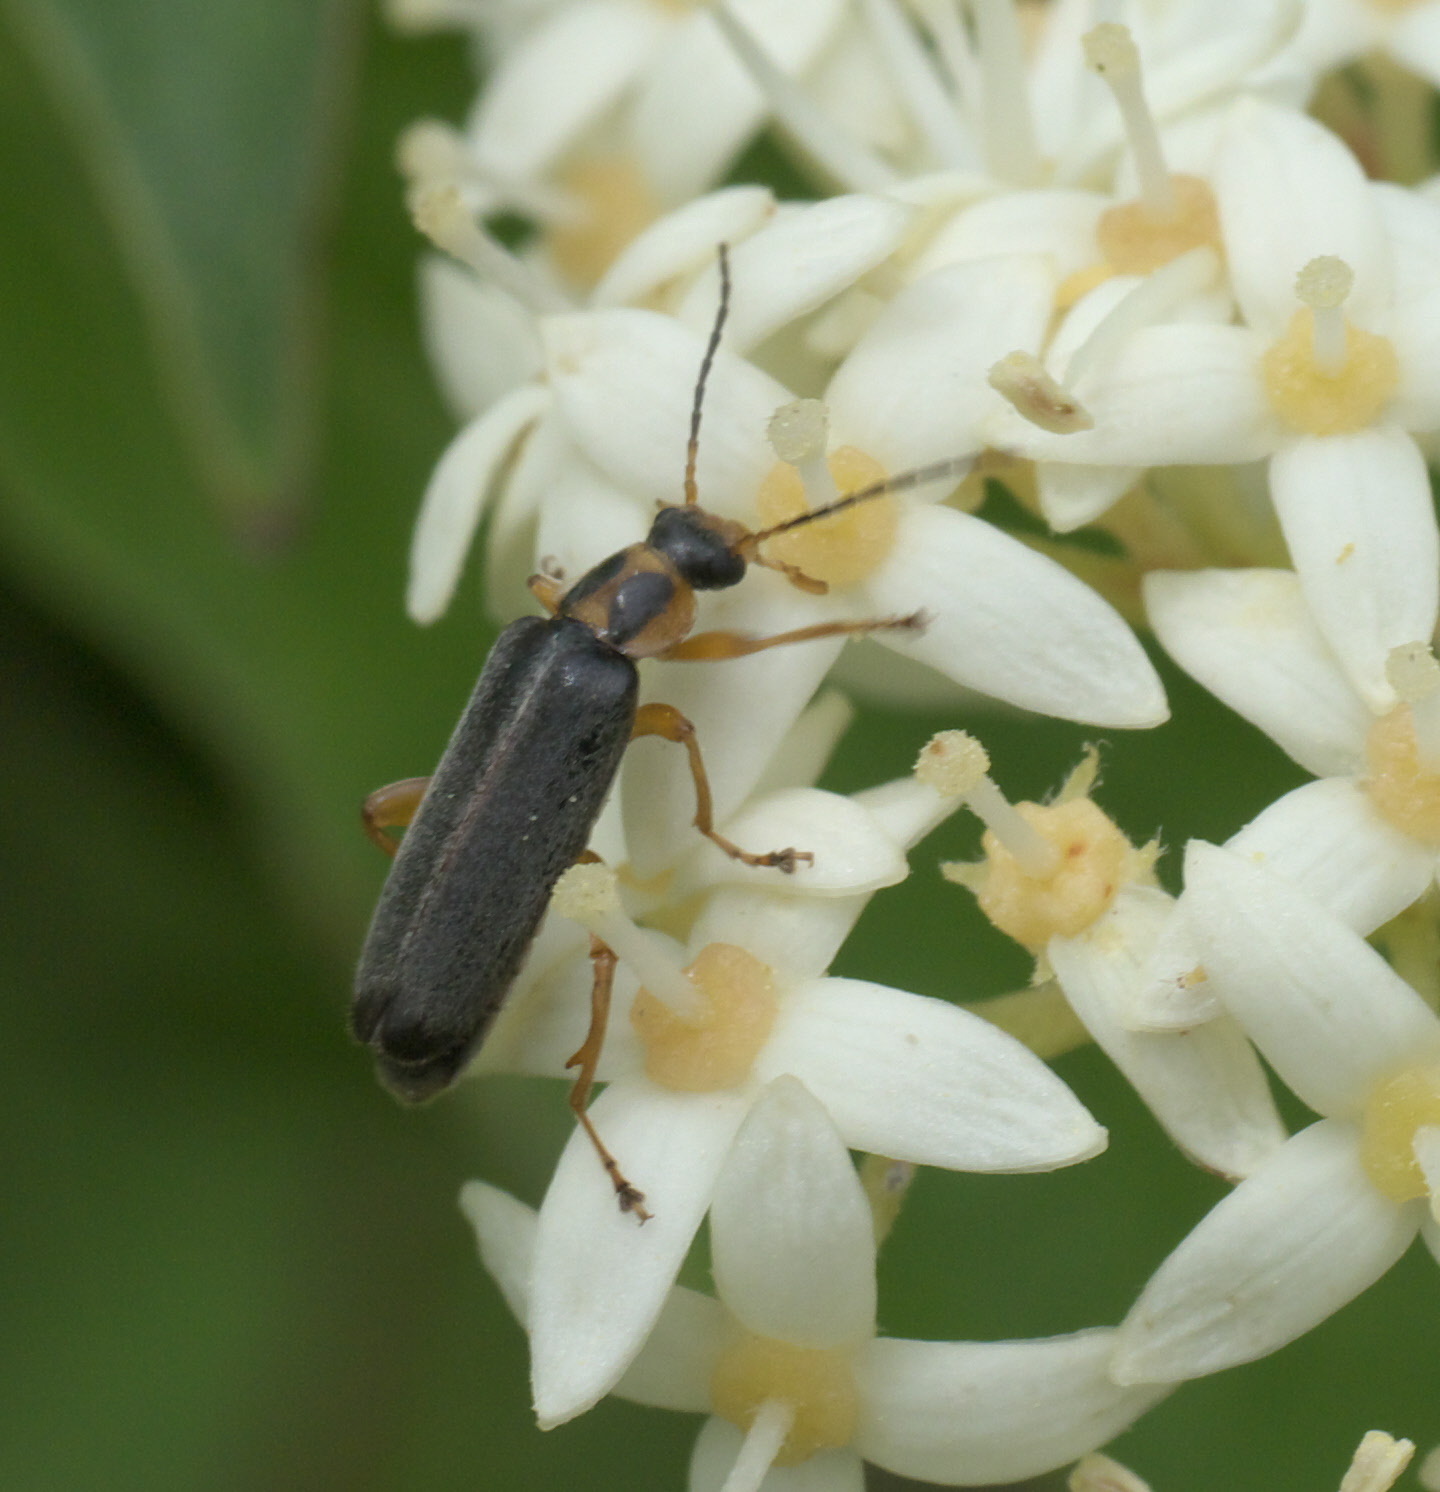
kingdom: Animalia
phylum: Arthropoda
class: Insecta
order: Coleoptera
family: Melandryidae
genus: Osphya
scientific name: Osphya varians
